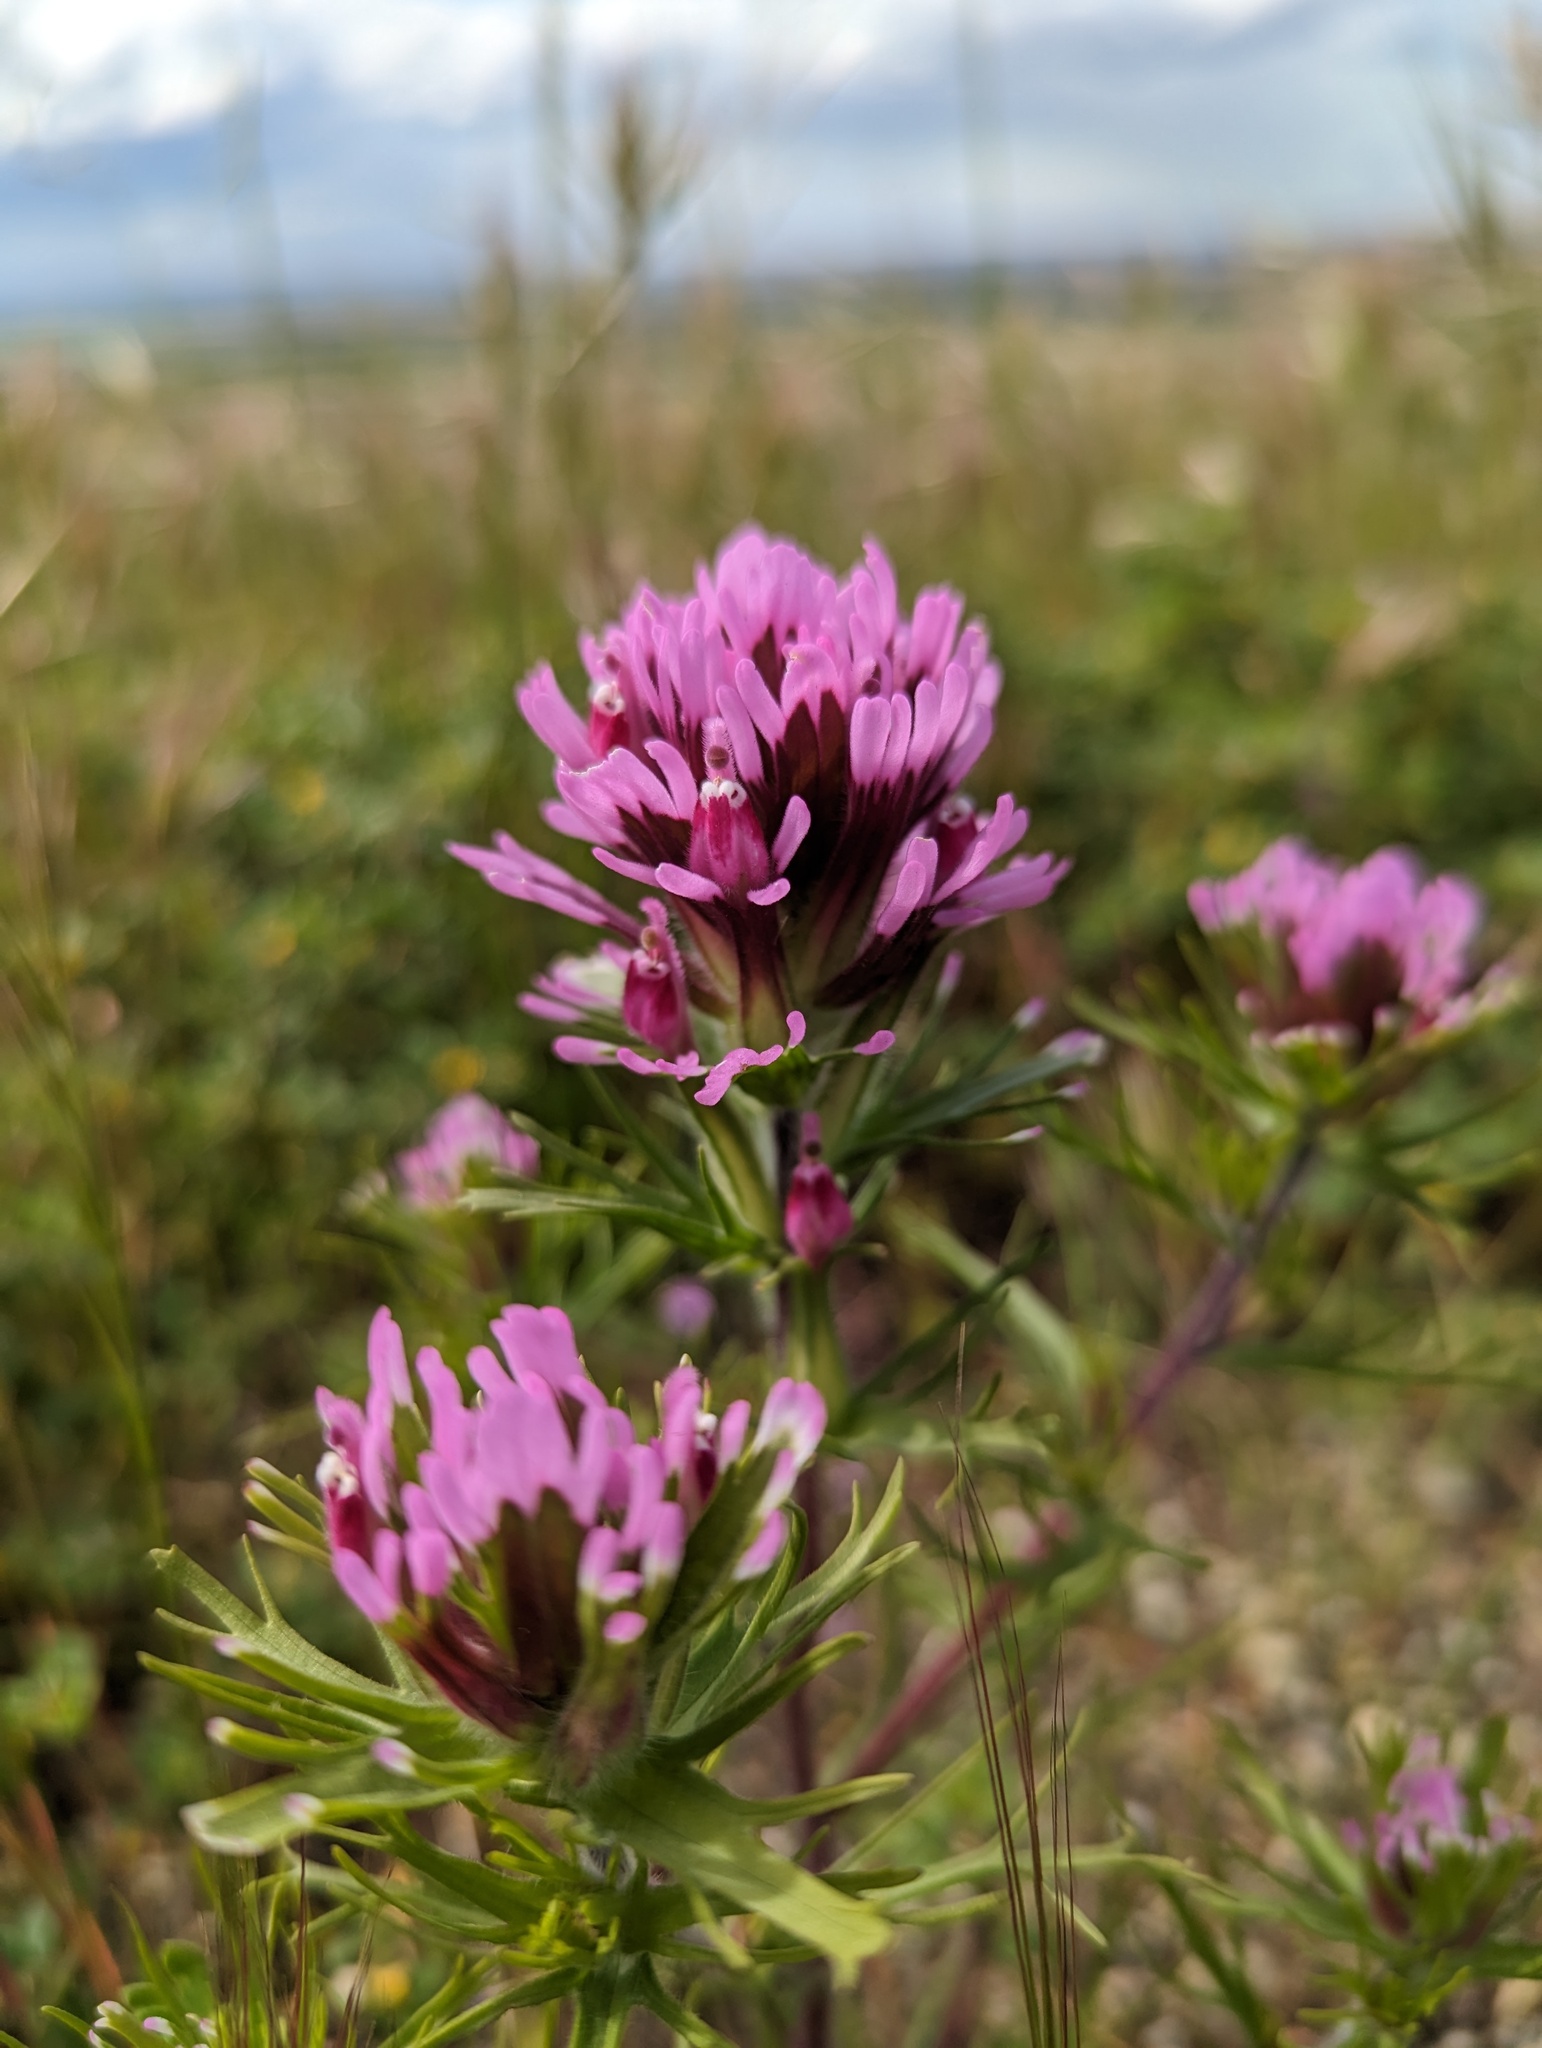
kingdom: Plantae
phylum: Tracheophyta
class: Magnoliopsida
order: Lamiales
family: Orobanchaceae
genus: Castilleja
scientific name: Castilleja exserta
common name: Purple owl-clover
